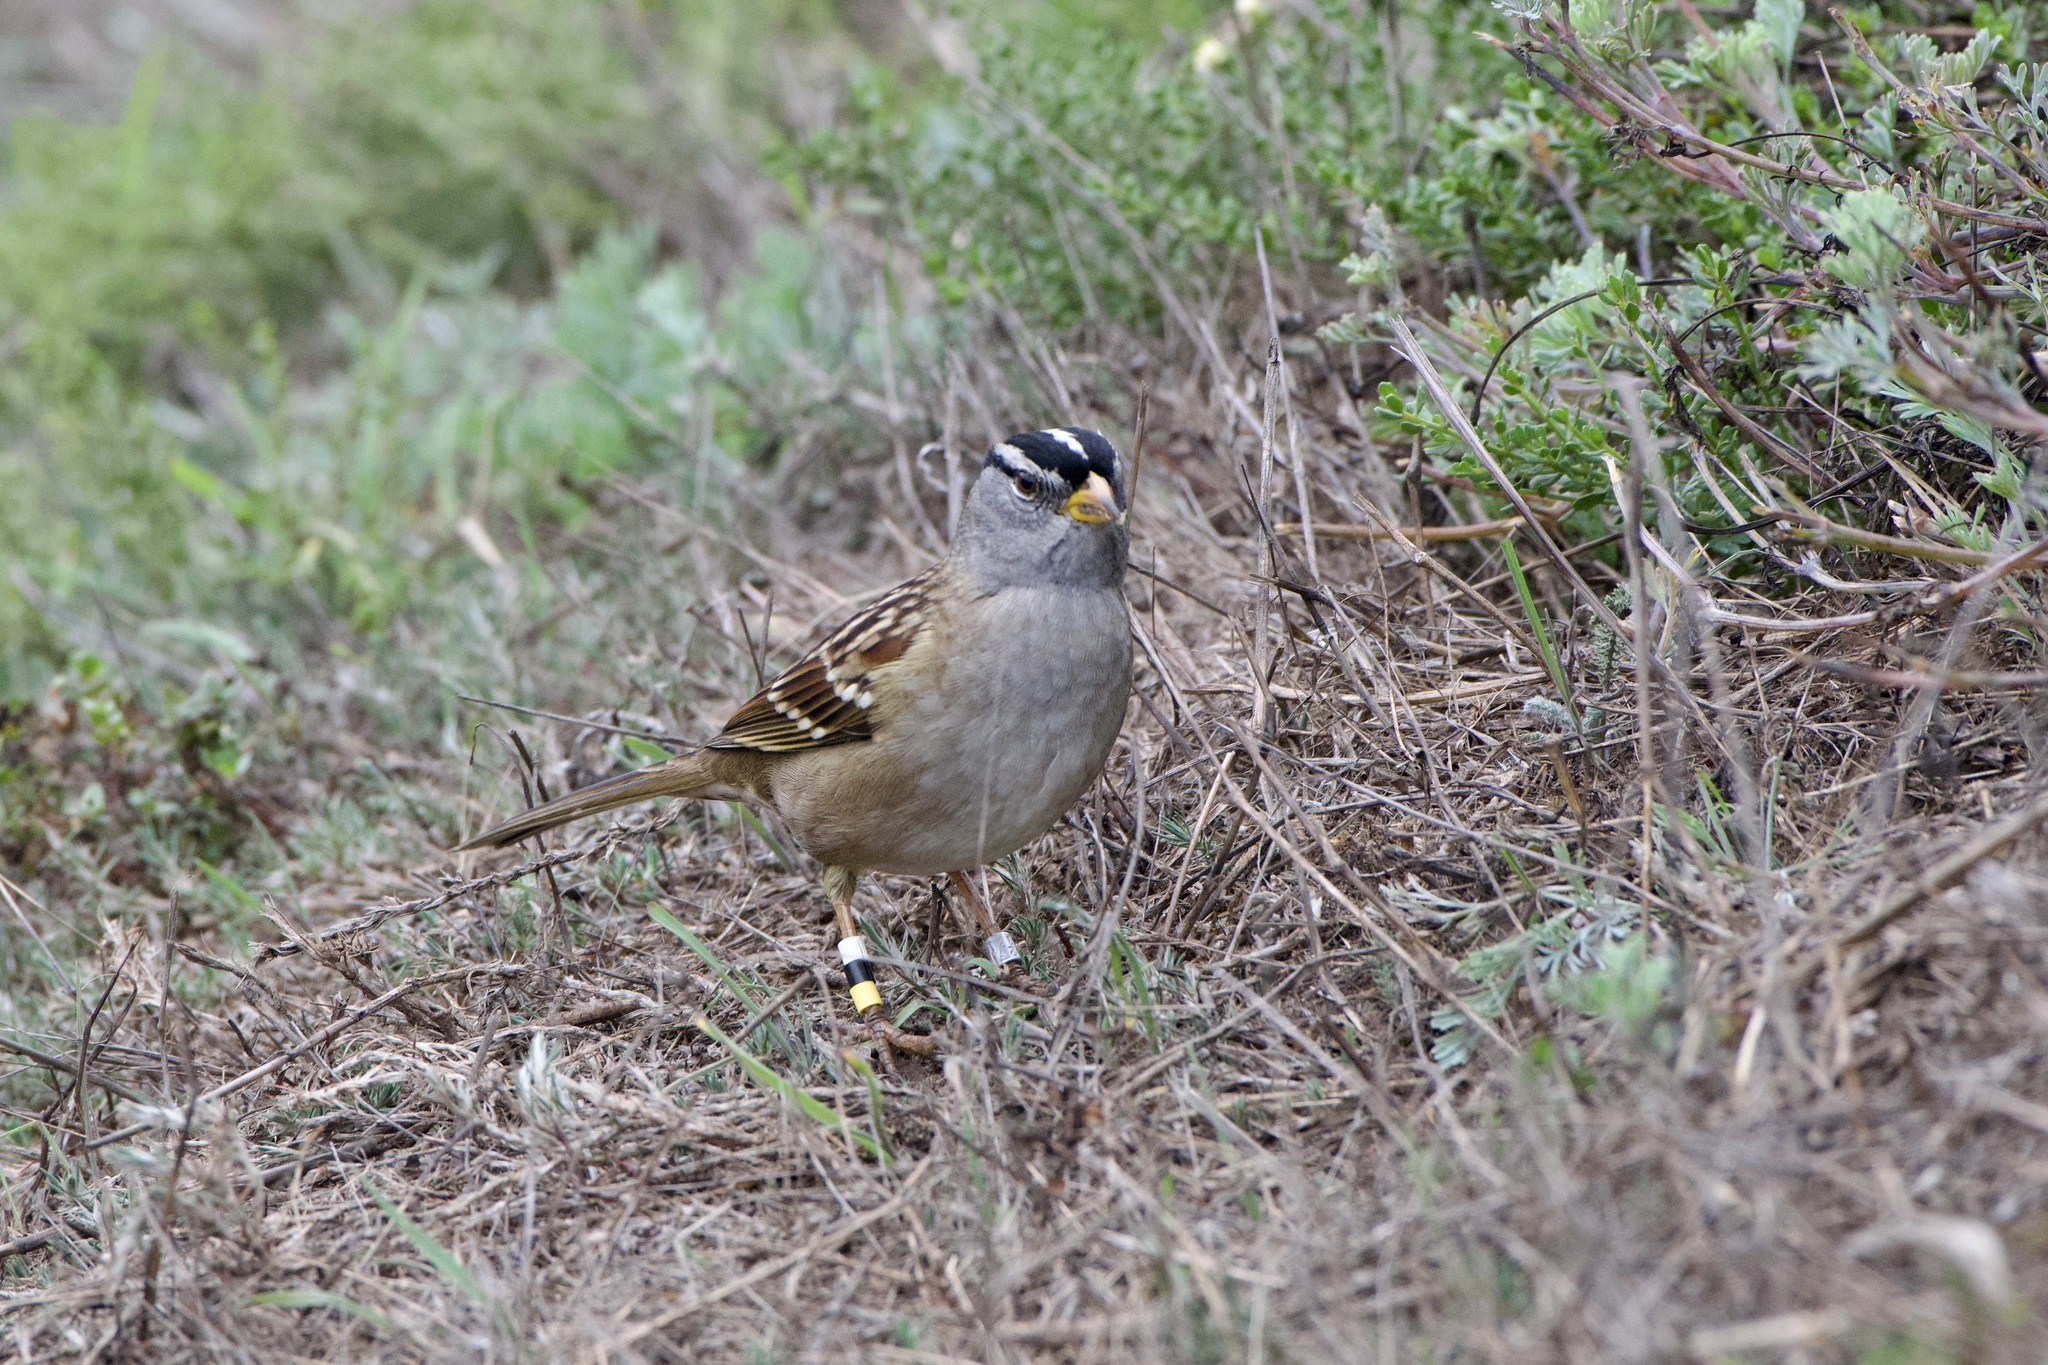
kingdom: Animalia
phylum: Chordata
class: Aves
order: Passeriformes
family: Passerellidae
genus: Zonotrichia
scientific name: Zonotrichia leucophrys
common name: White-crowned sparrow
